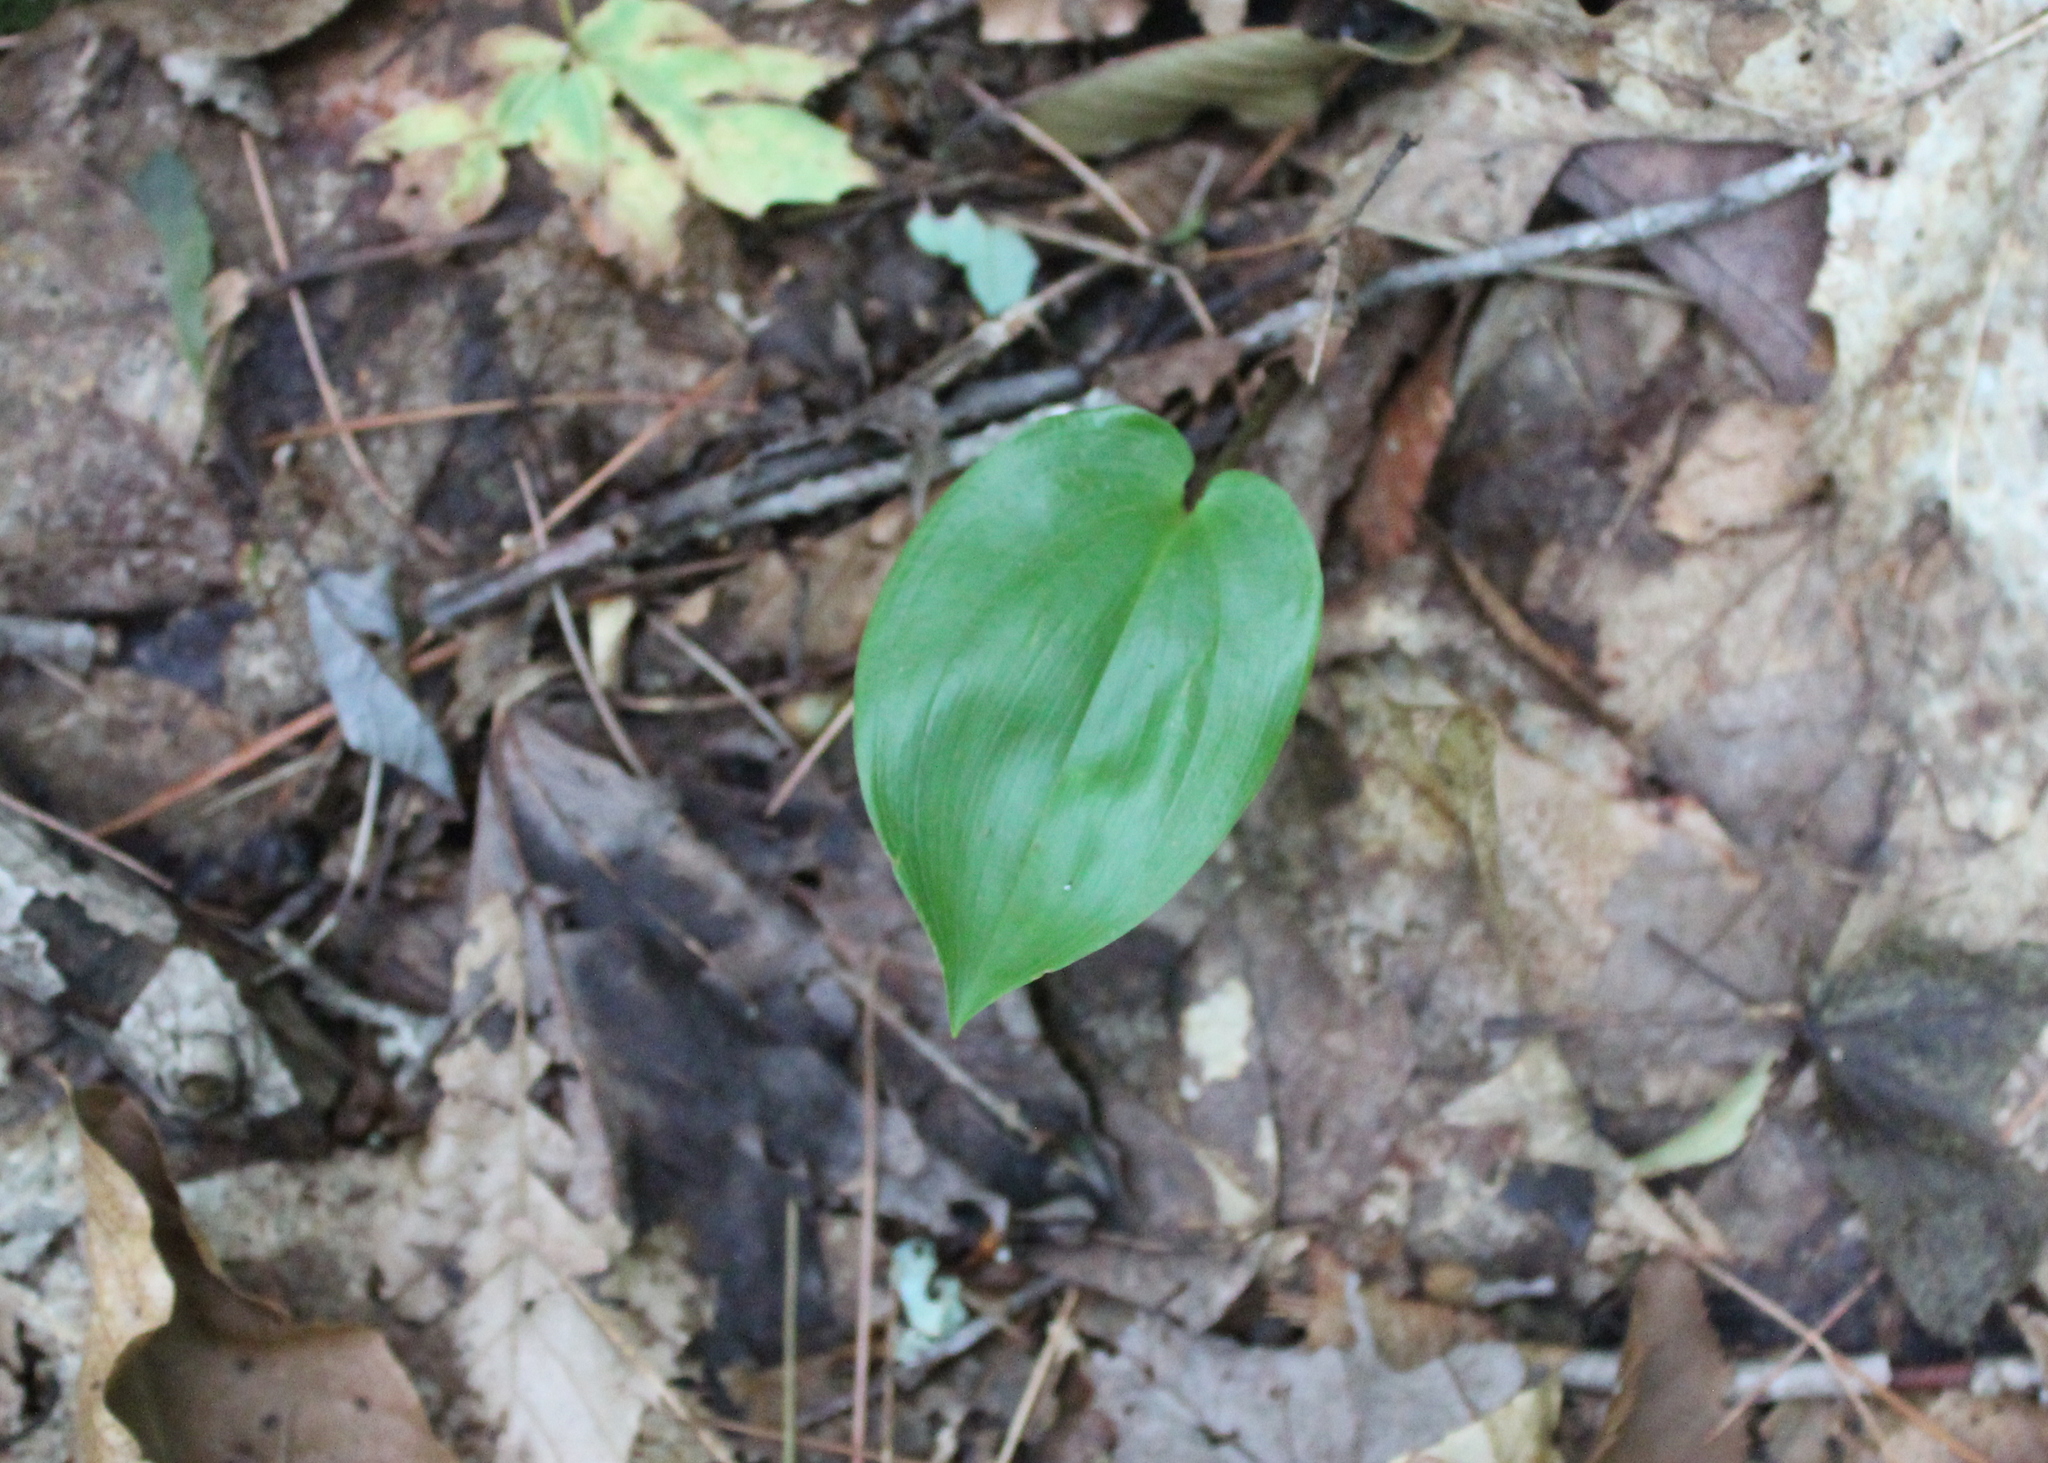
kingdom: Plantae
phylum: Tracheophyta
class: Liliopsida
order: Asparagales
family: Asparagaceae
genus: Maianthemum
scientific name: Maianthemum canadense
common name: False lily-of-the-valley
